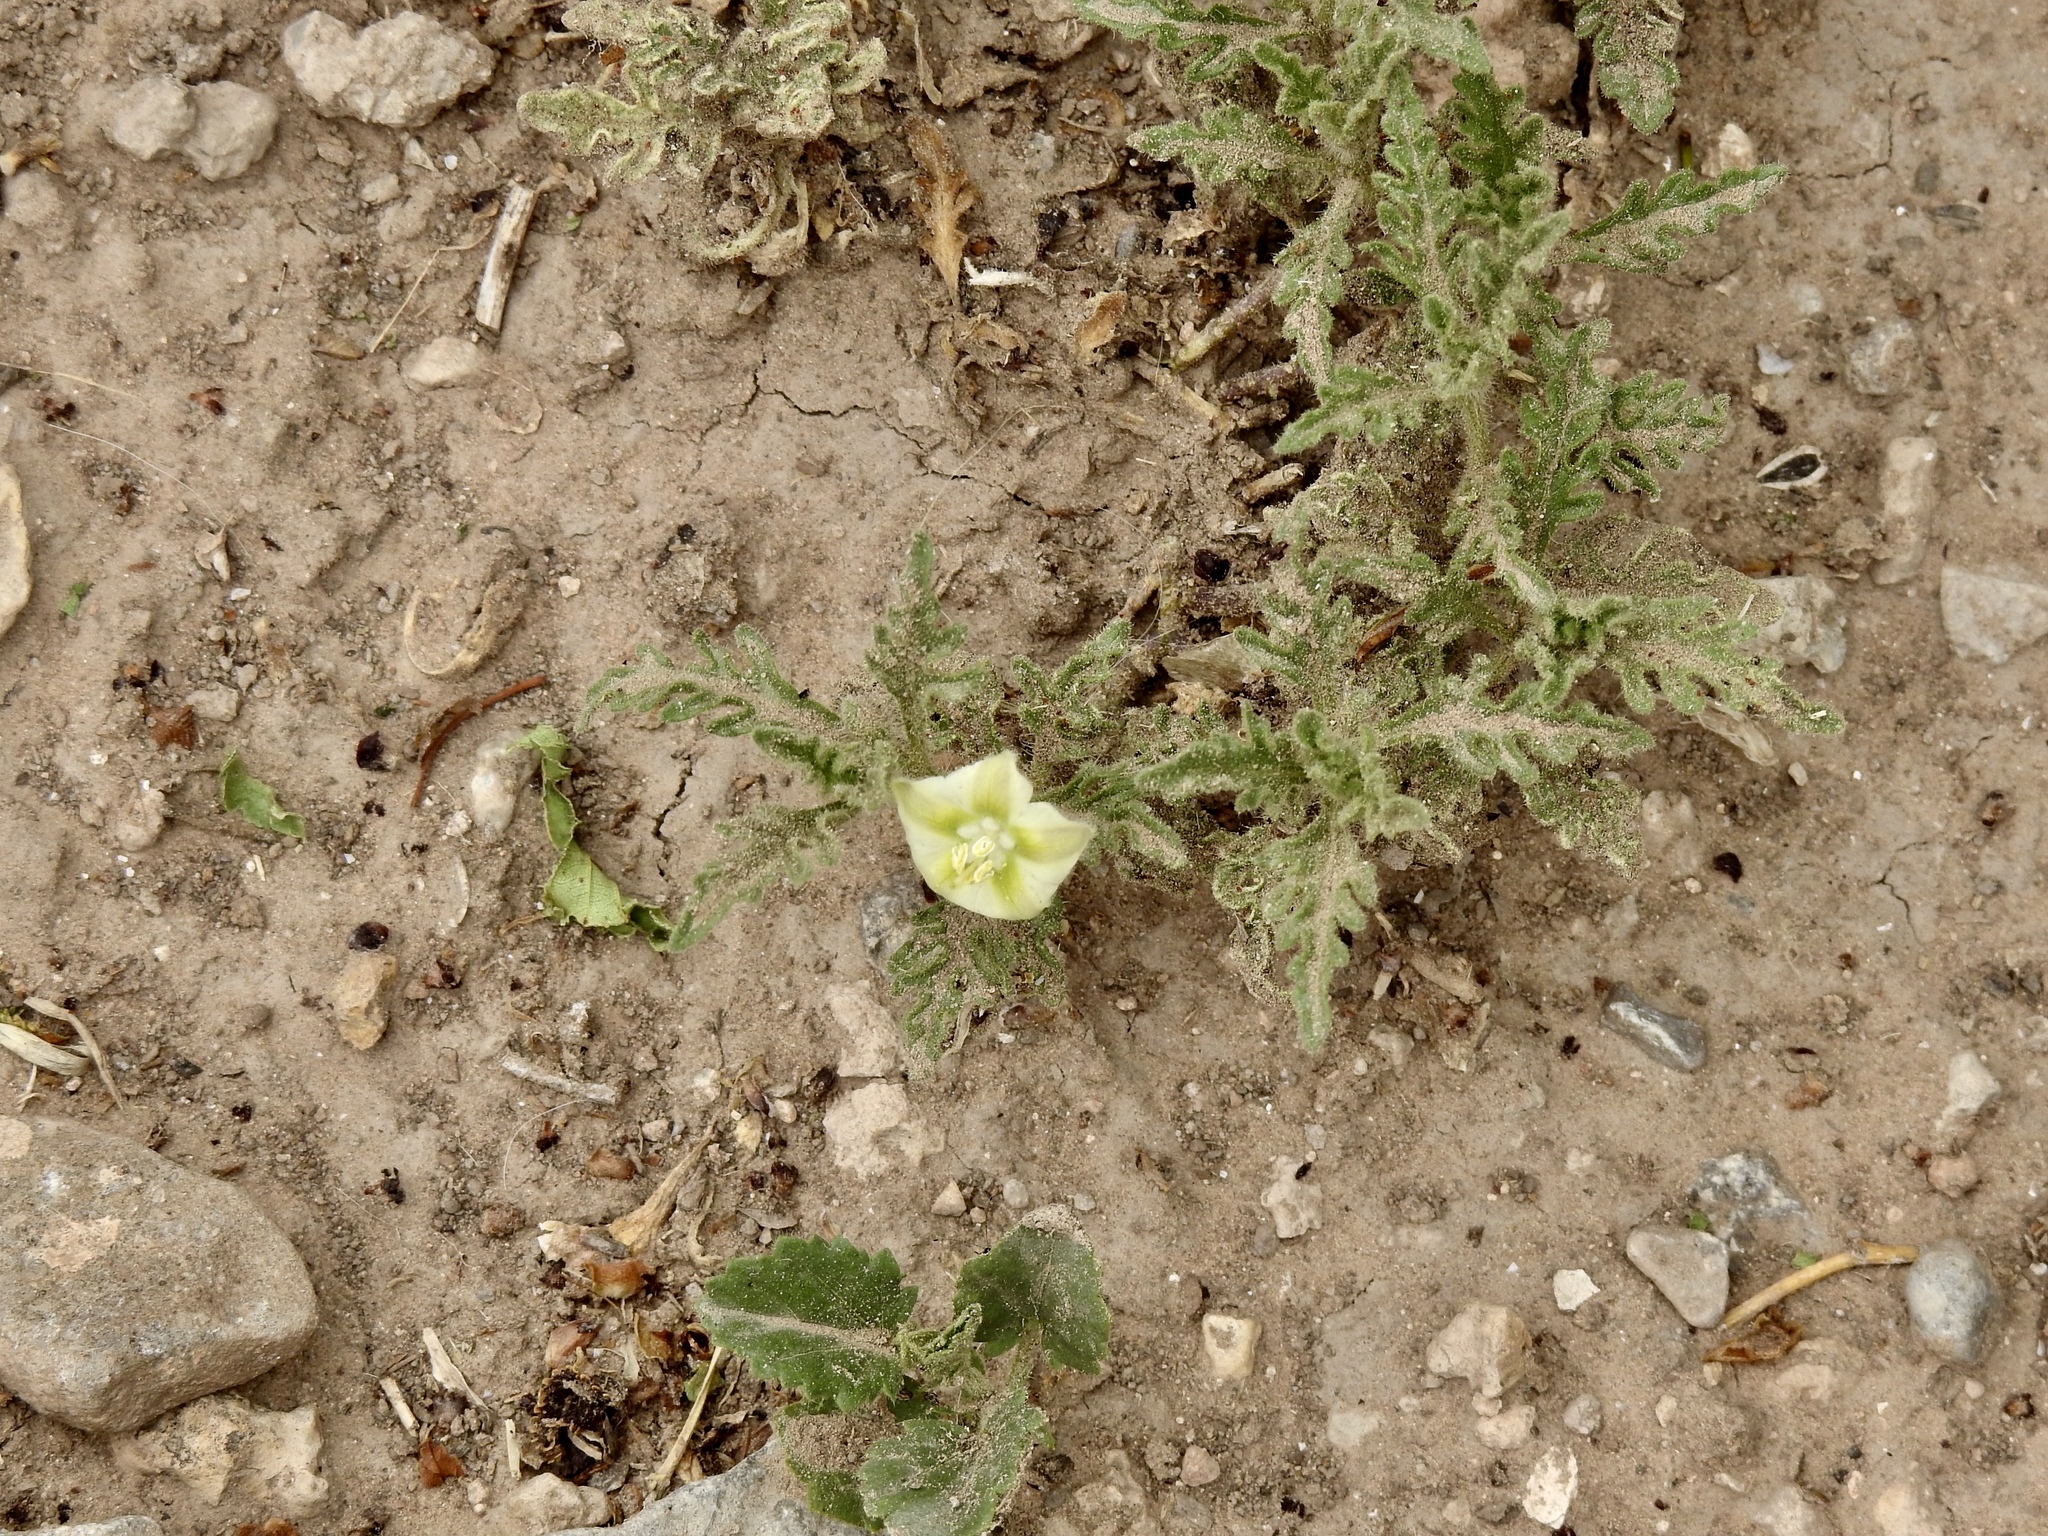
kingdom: Plantae
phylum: Tracheophyta
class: Magnoliopsida
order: Solanales
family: Solanaceae
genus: Chamaesaracha
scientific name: Chamaesaracha coniodes
